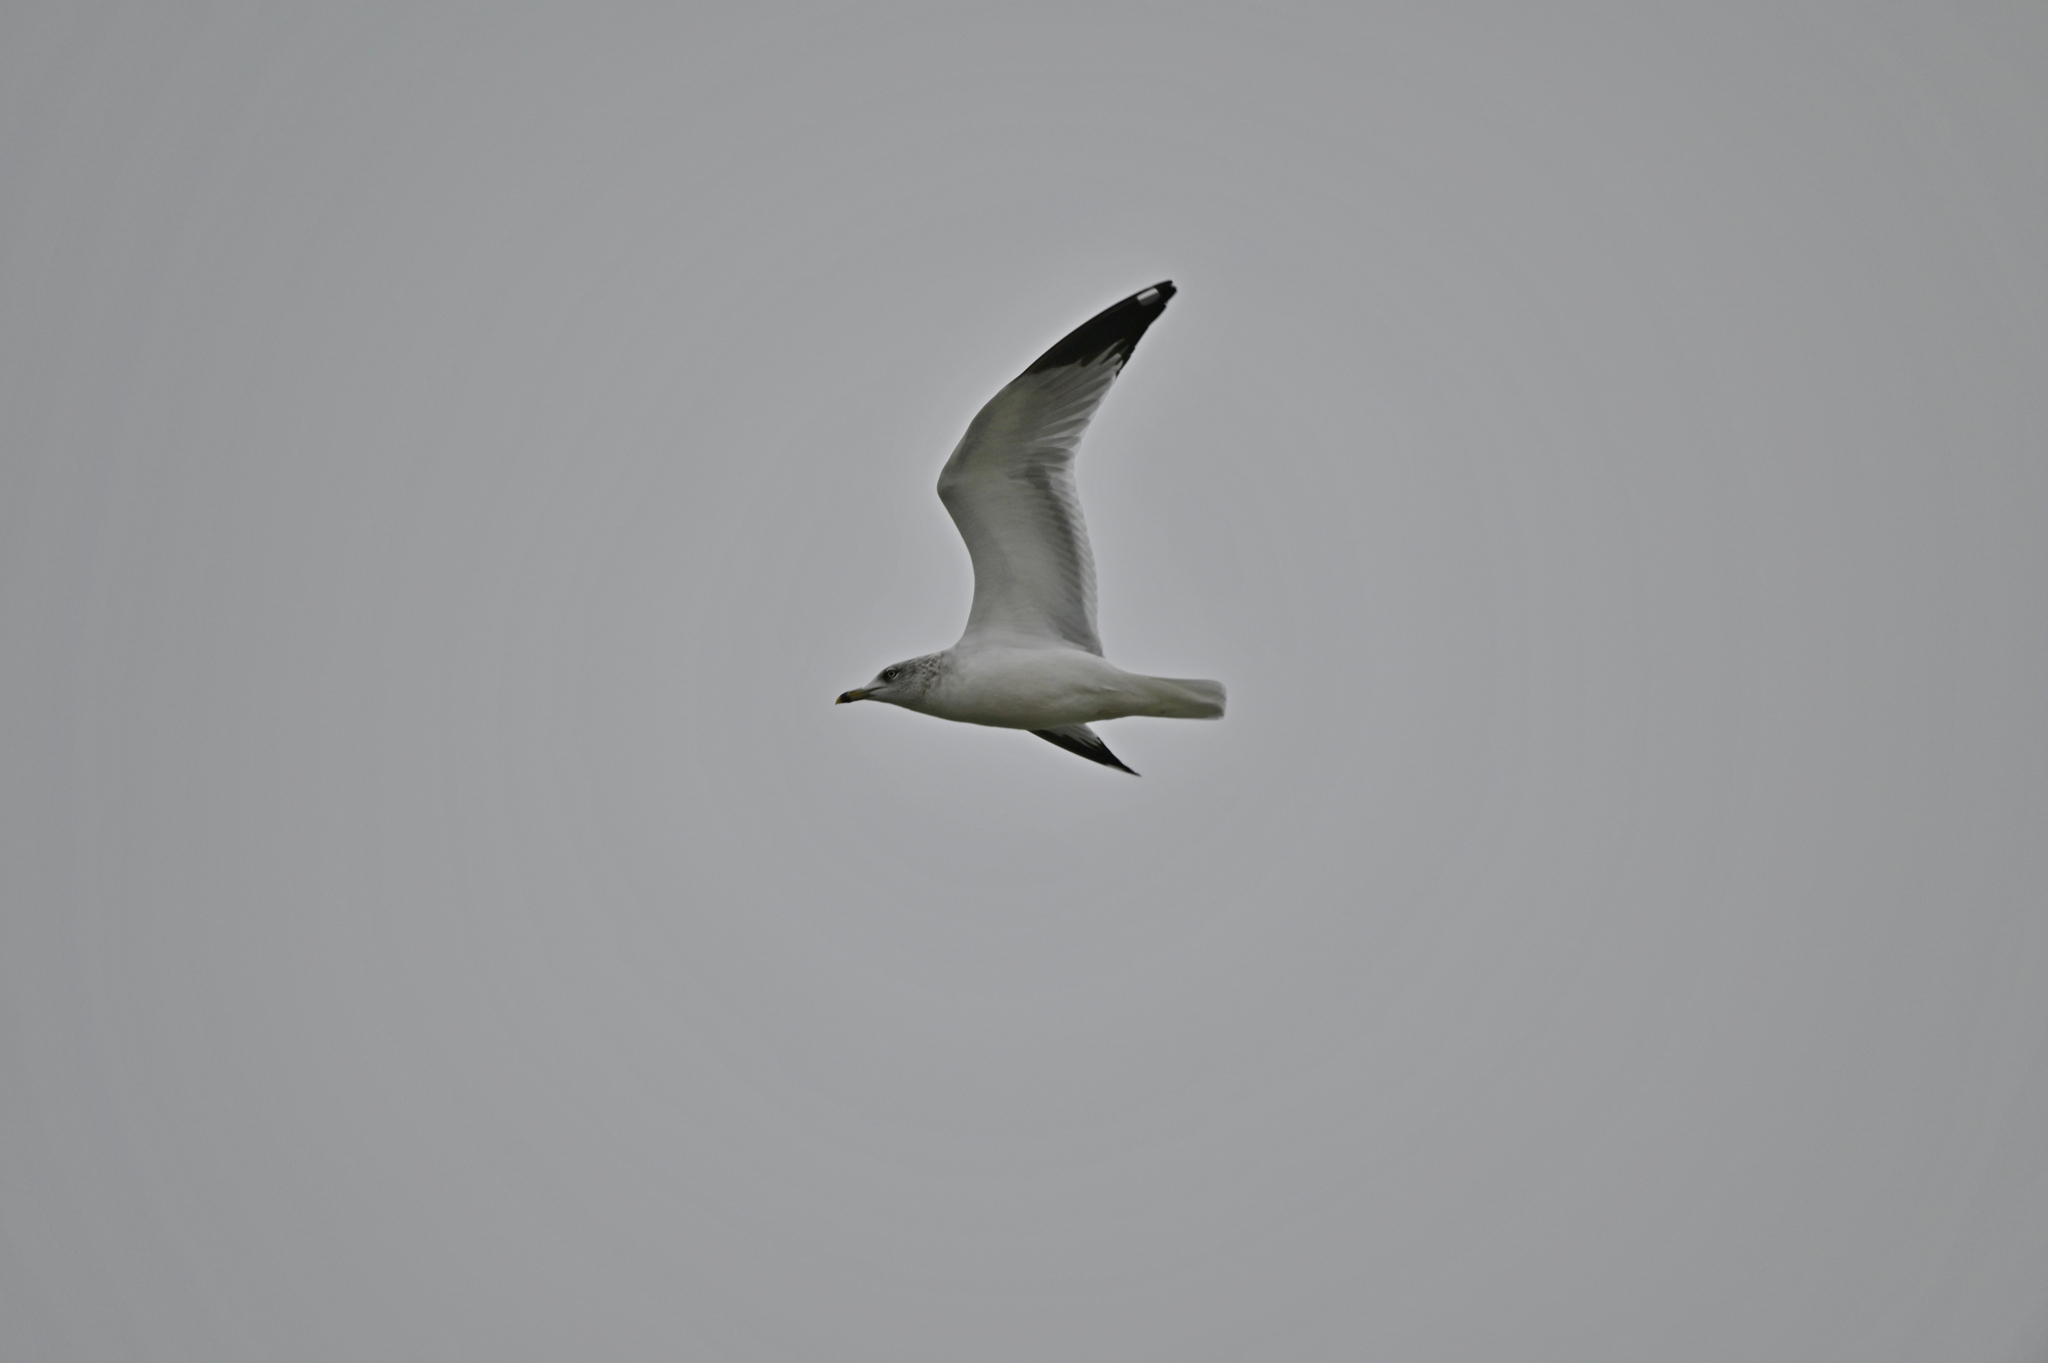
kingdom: Animalia
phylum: Chordata
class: Aves
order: Charadriiformes
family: Laridae
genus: Larus
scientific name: Larus delawarensis
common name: Ring-billed gull
